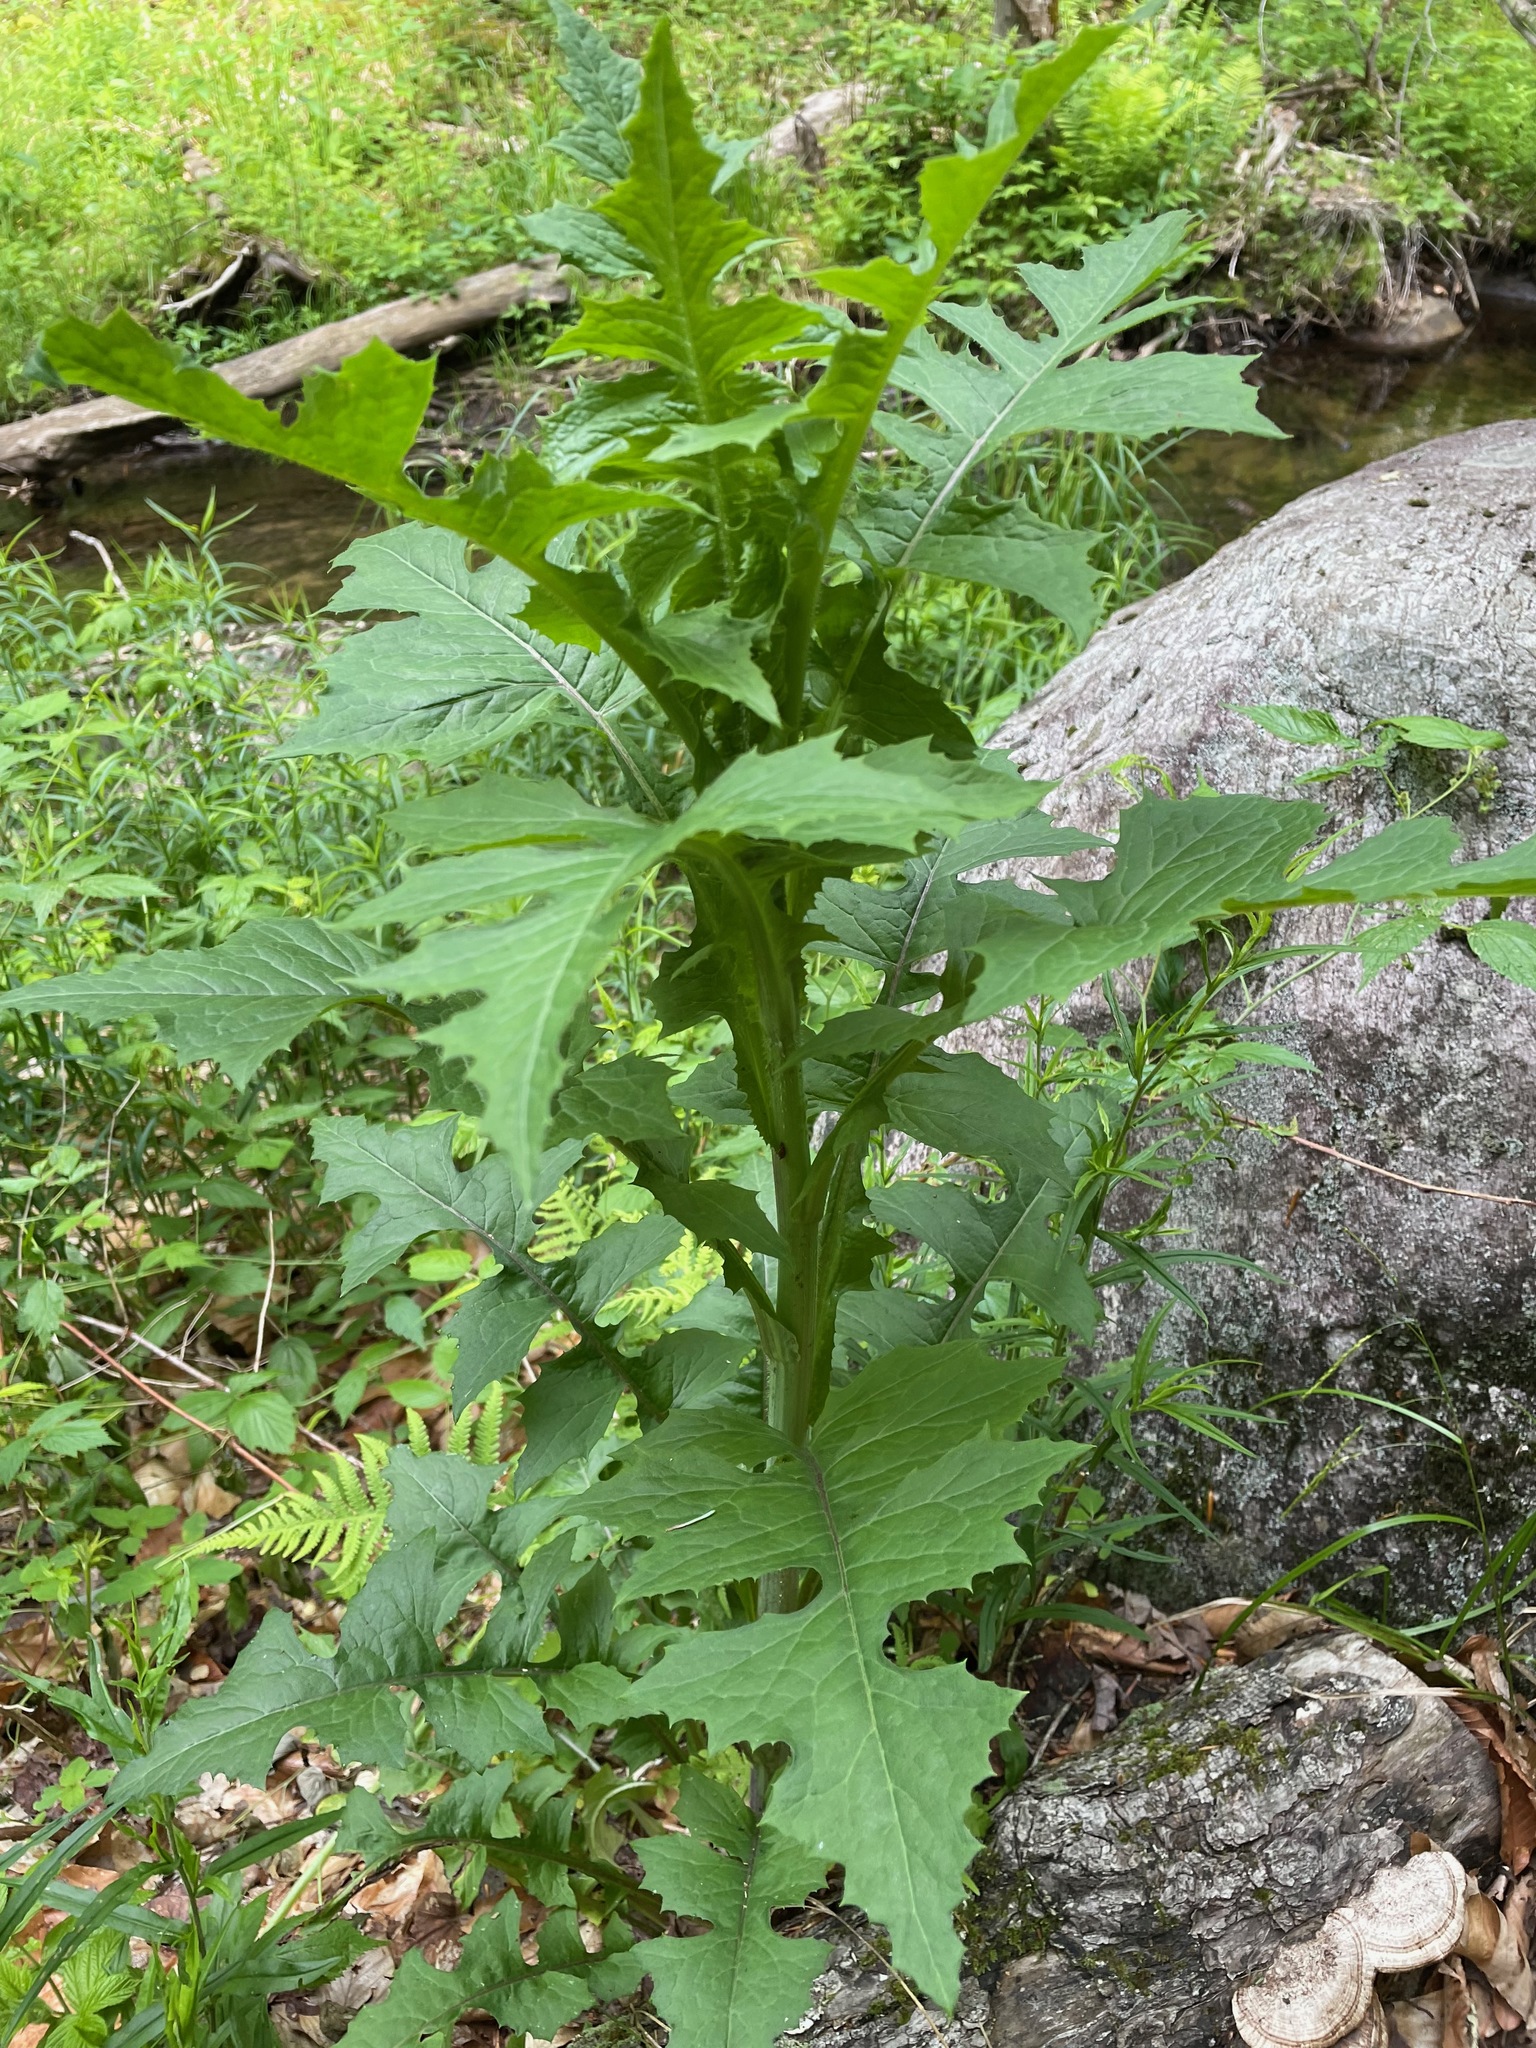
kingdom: Plantae
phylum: Tracheophyta
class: Magnoliopsida
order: Asterales
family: Asteraceae
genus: Lactuca
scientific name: Lactuca biennis
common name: Blue wood lettuce
